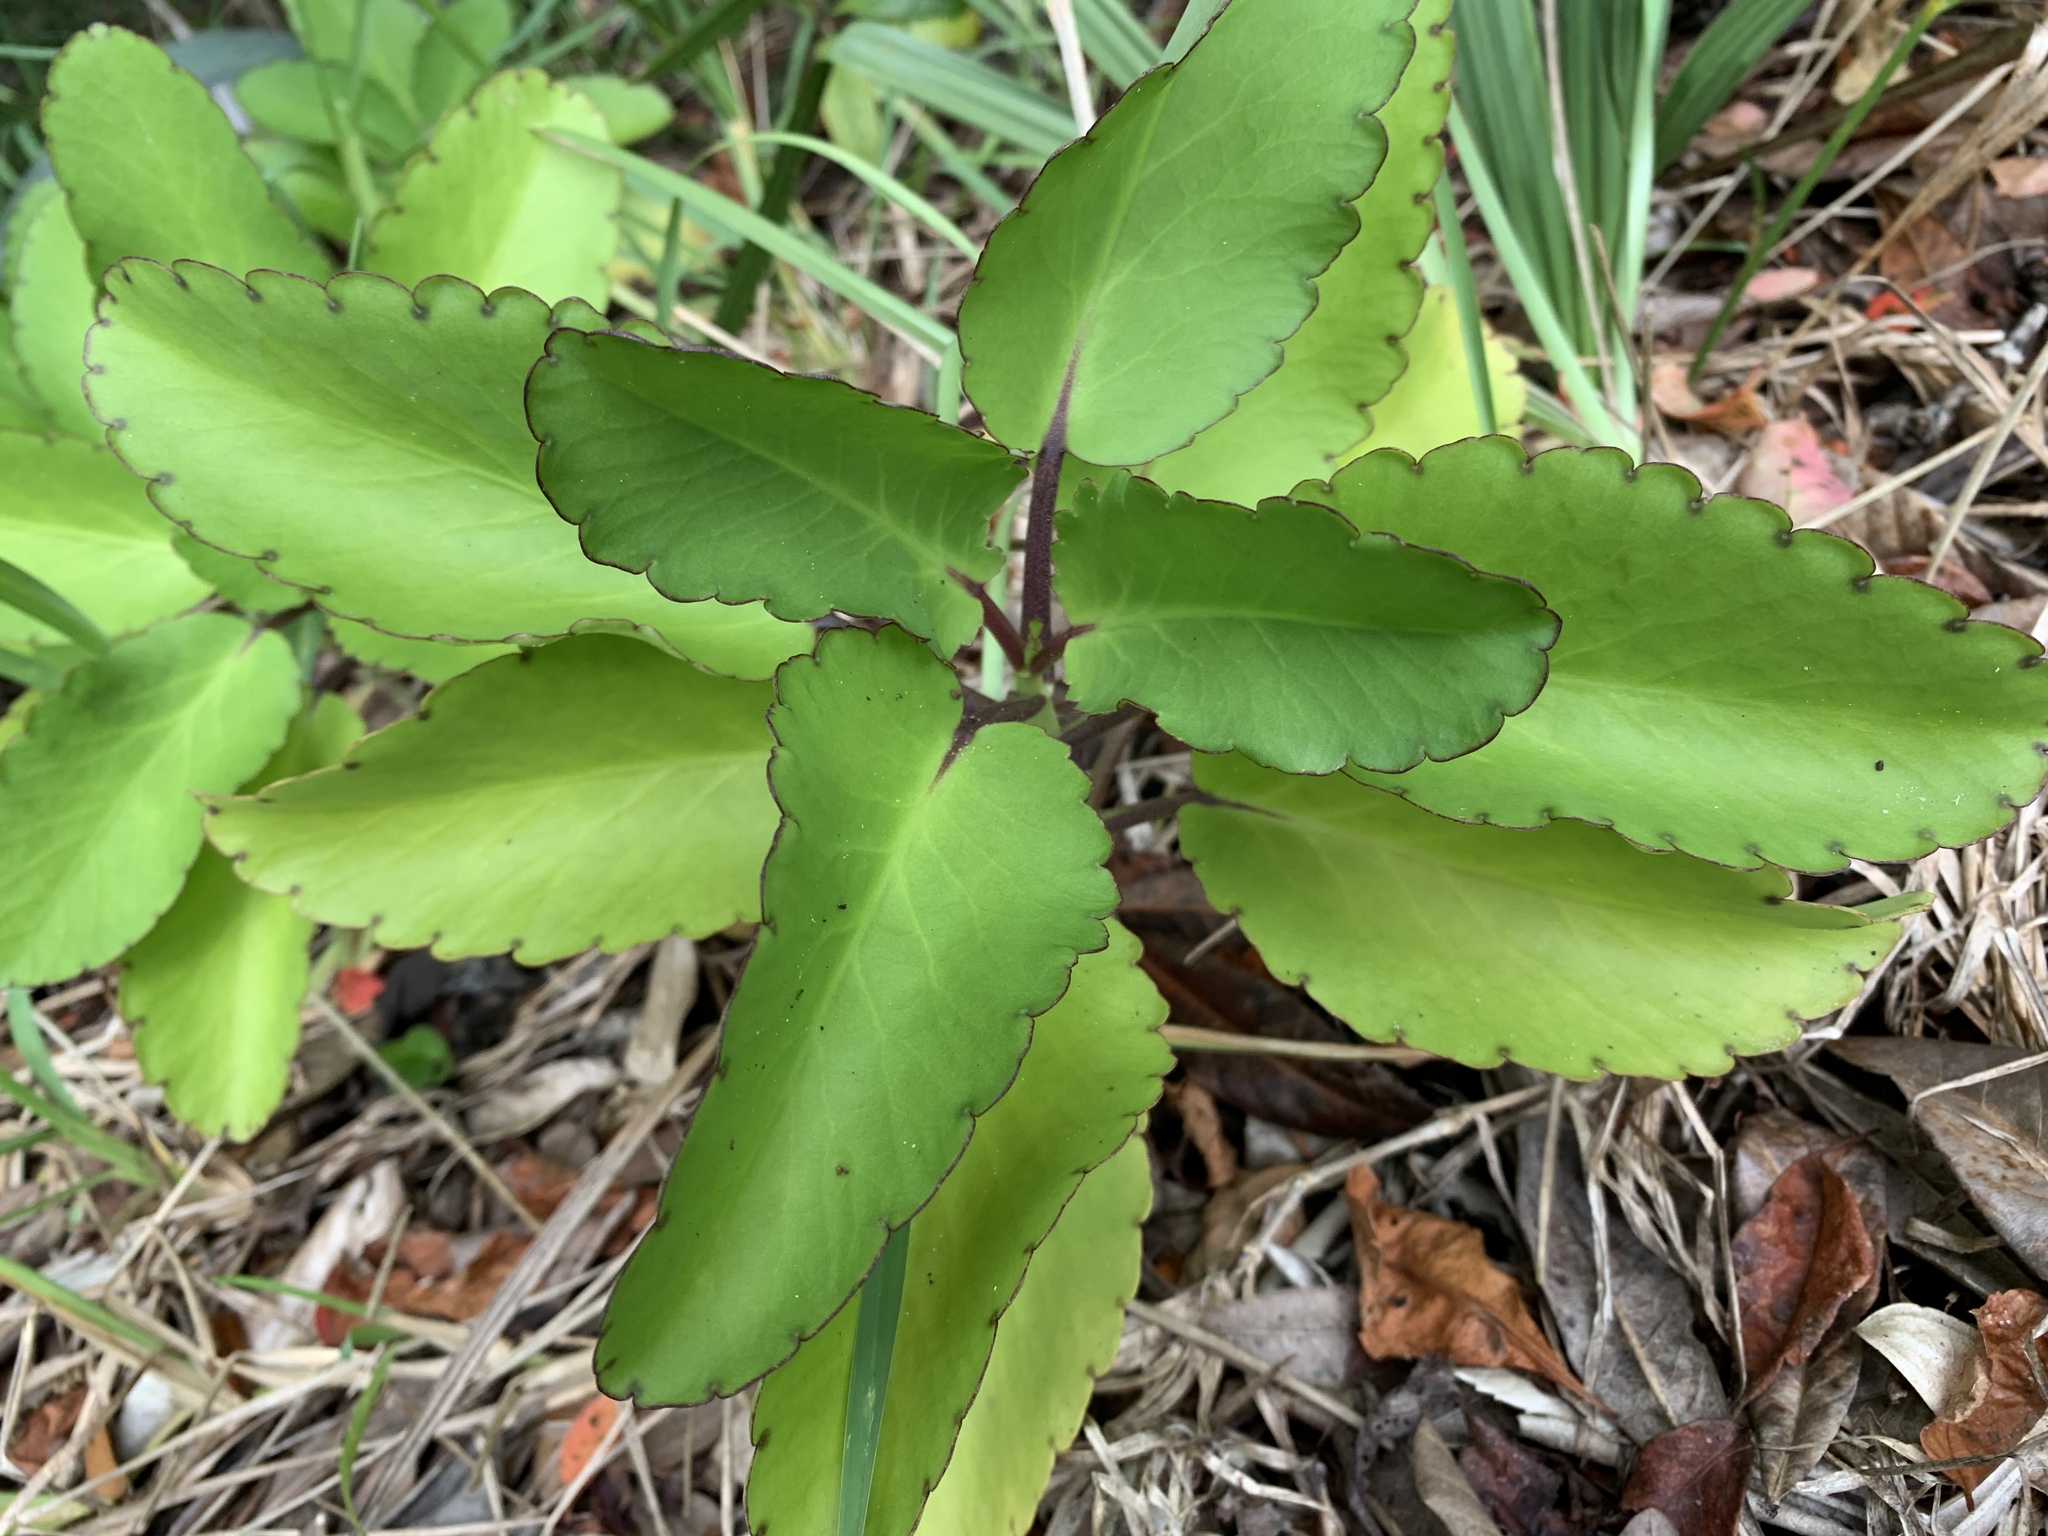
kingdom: Plantae
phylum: Tracheophyta
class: Magnoliopsida
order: Saxifragales
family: Crassulaceae
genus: Kalanchoe
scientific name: Kalanchoe pinnata
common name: Cathedral bells
